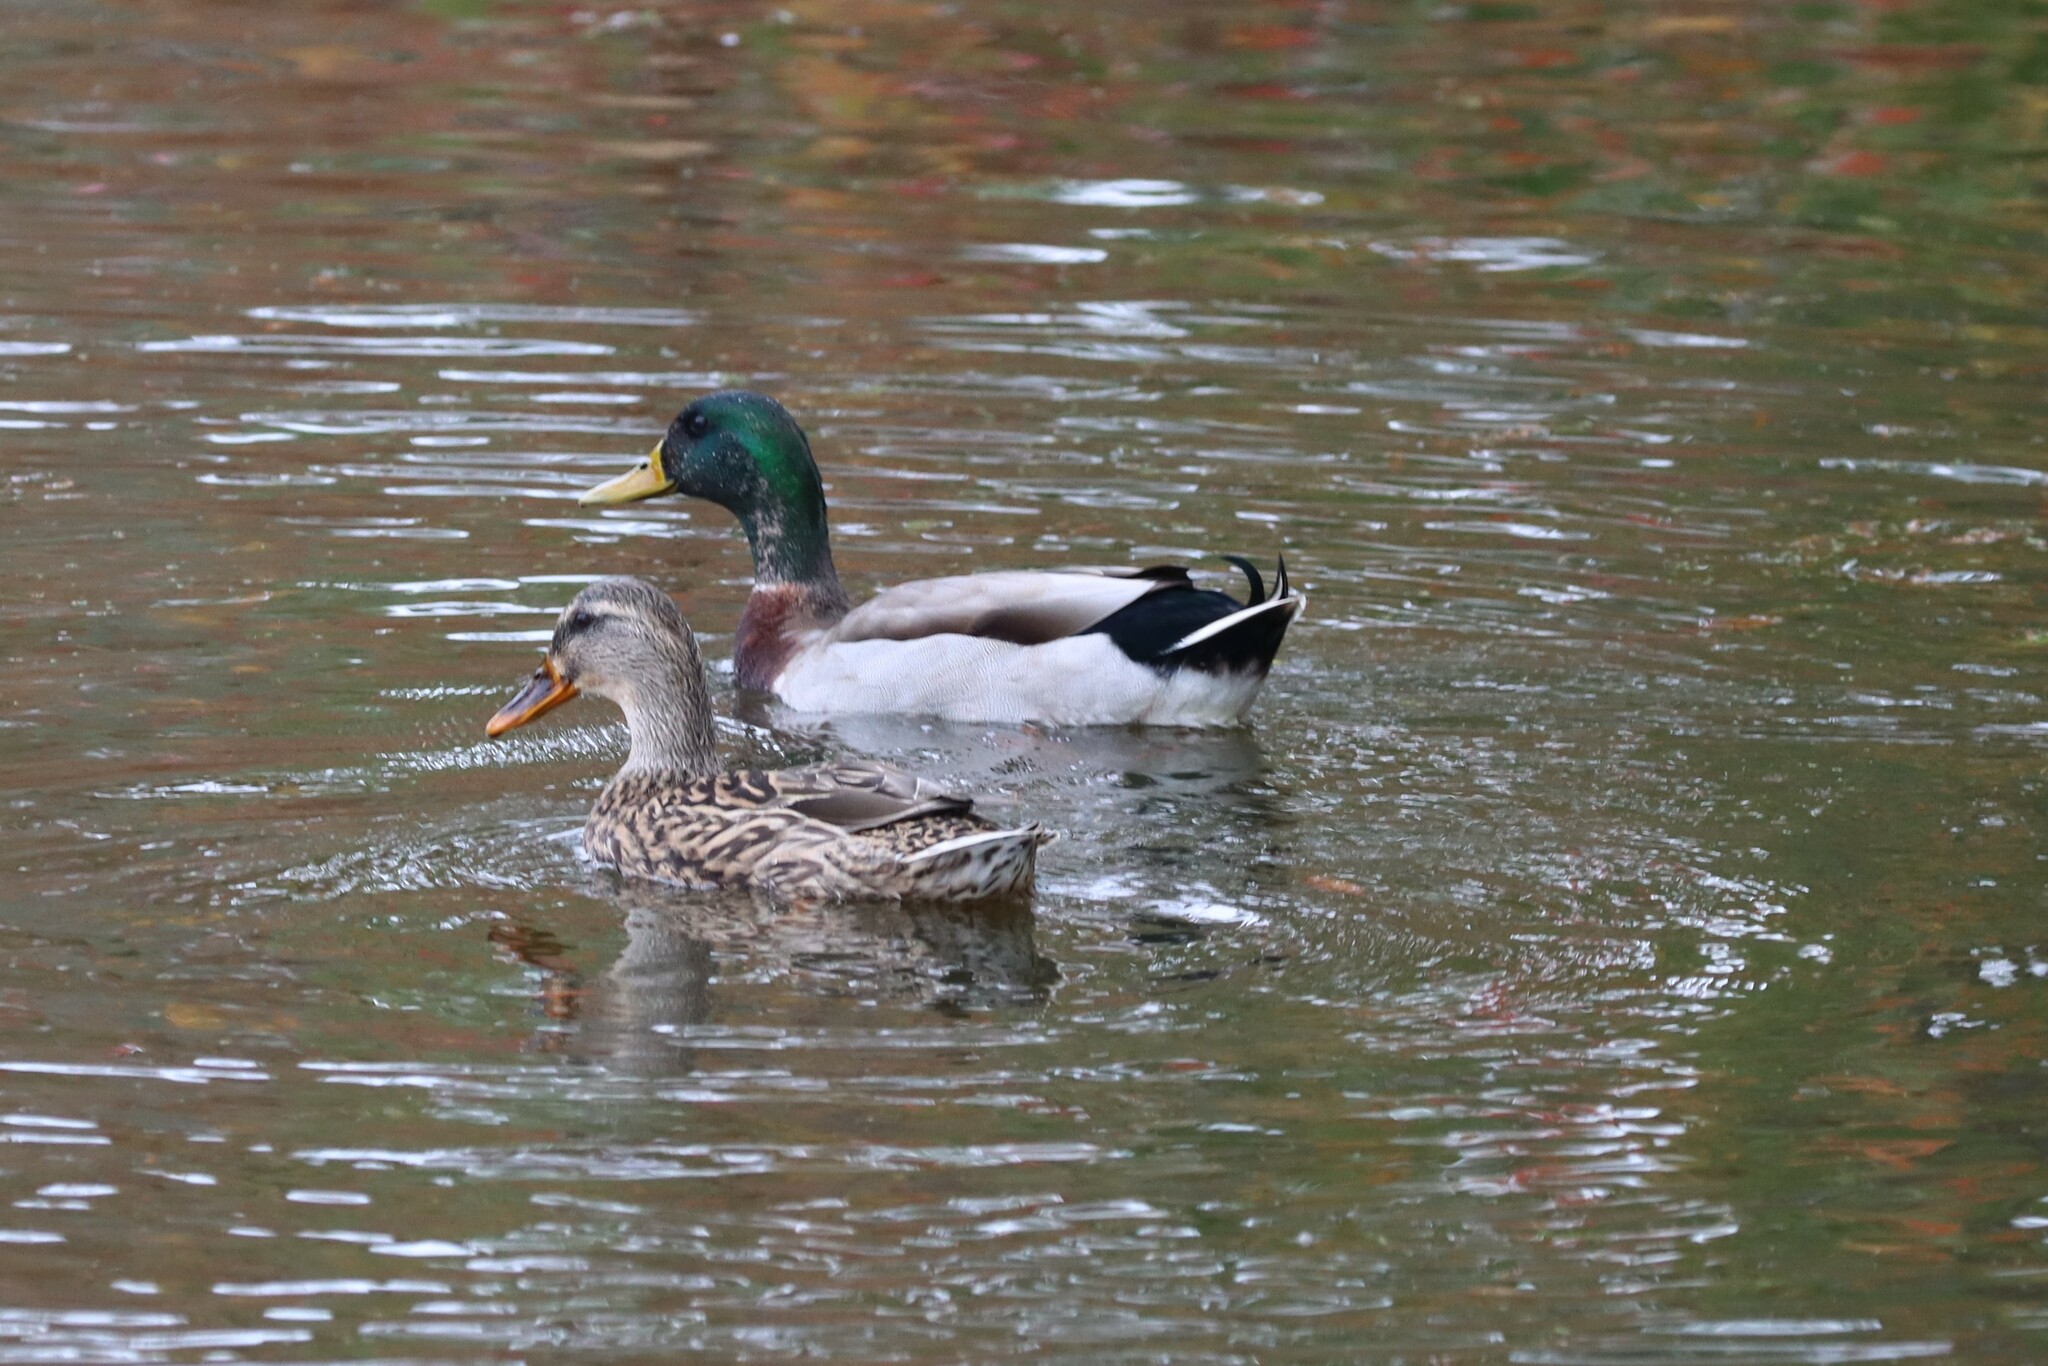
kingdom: Animalia
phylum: Chordata
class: Aves
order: Anseriformes
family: Anatidae
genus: Anas
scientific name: Anas platyrhynchos
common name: Mallard
